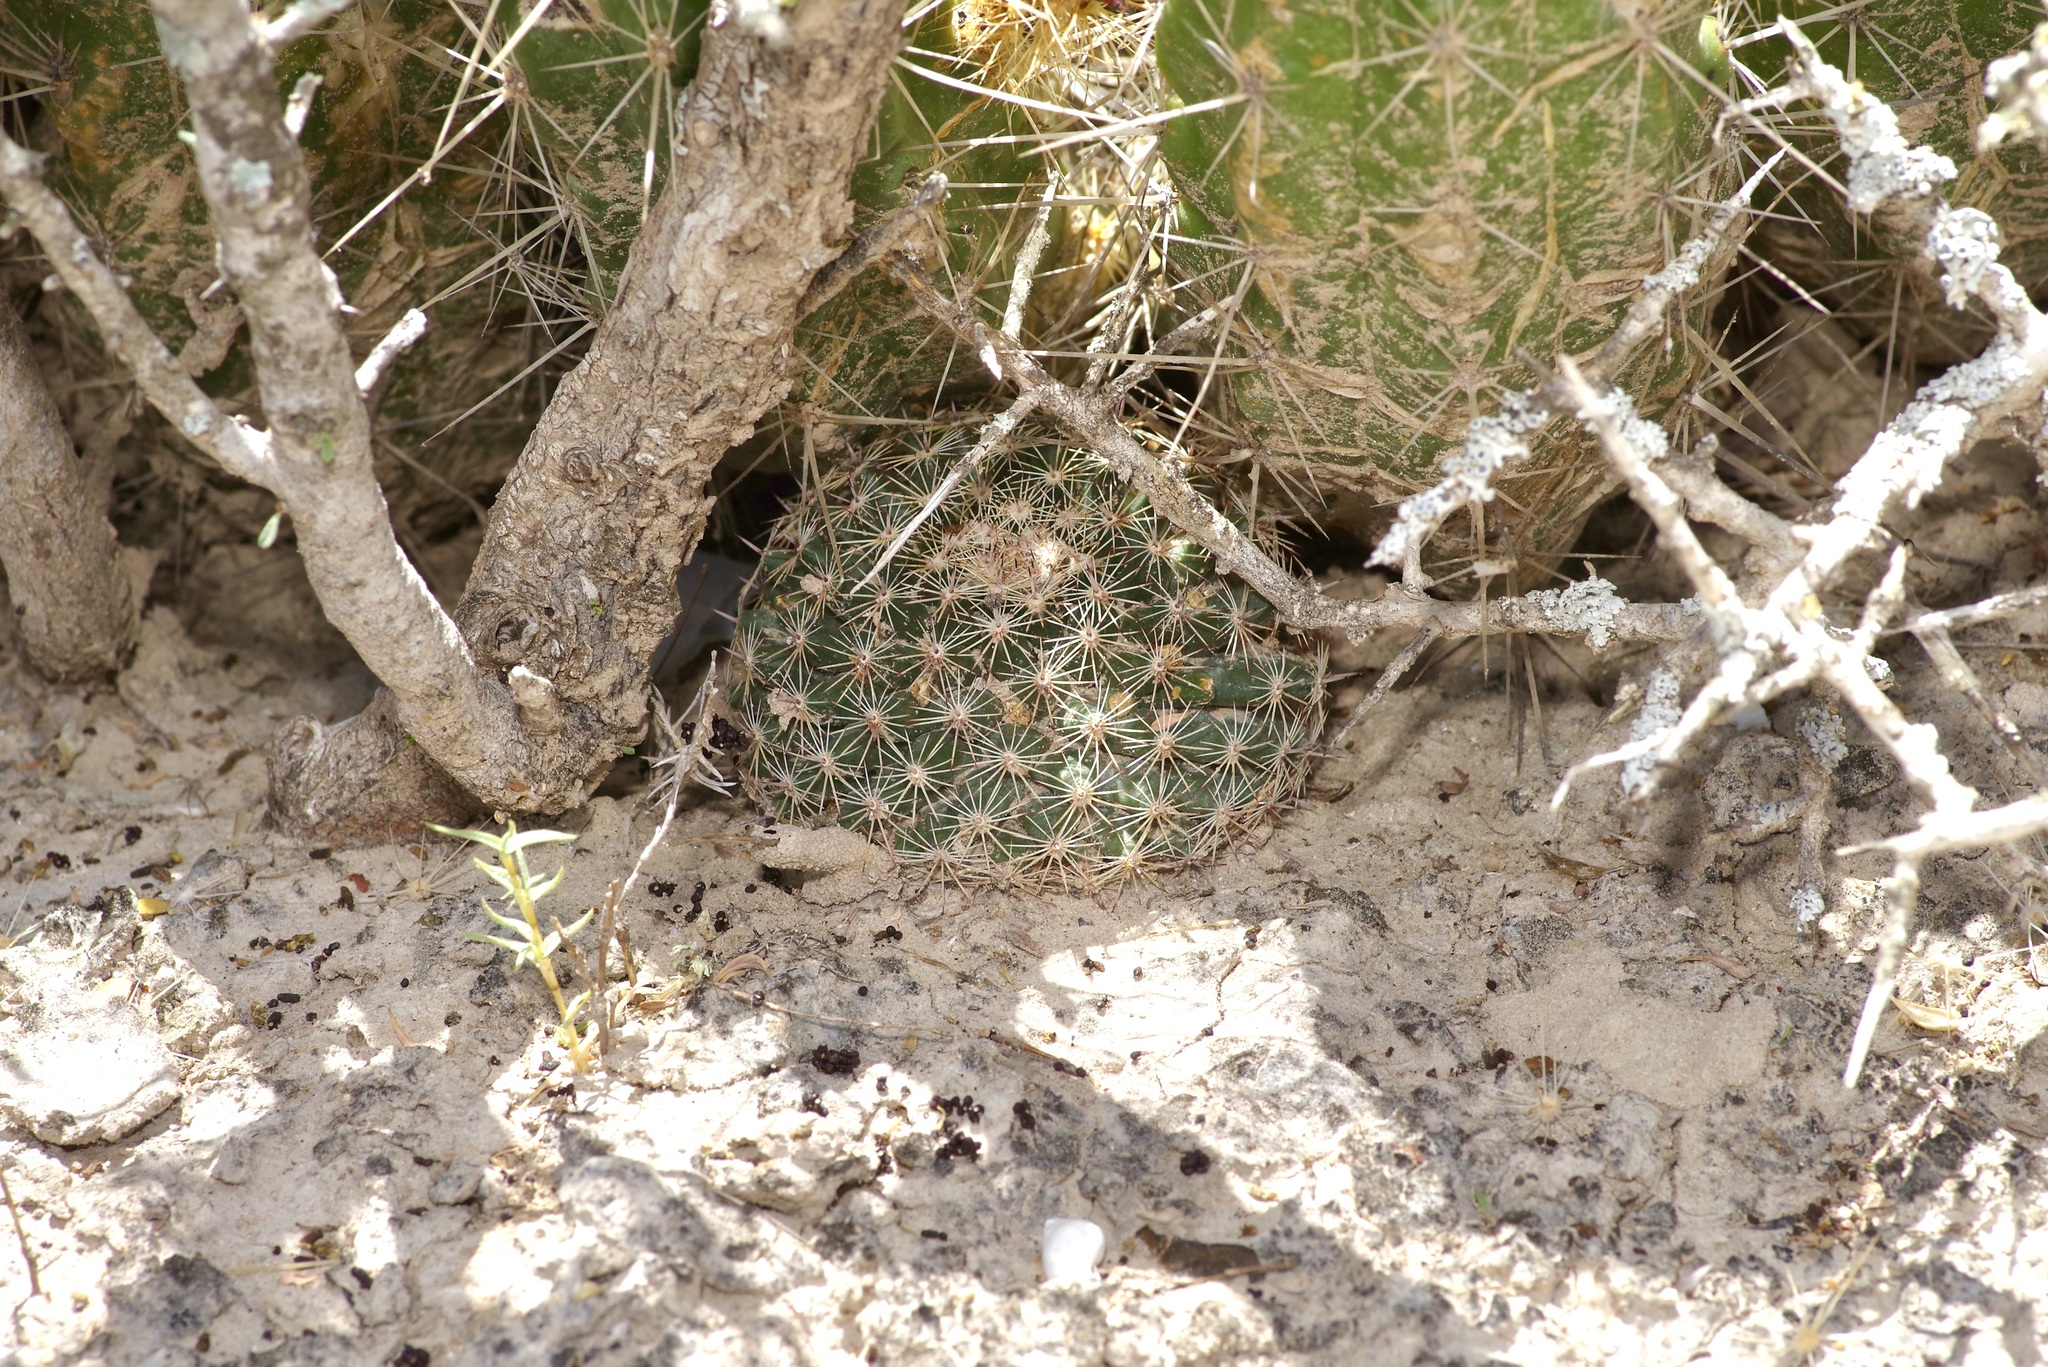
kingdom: Plantae
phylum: Tracheophyta
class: Magnoliopsida
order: Caryophyllales
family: Cactaceae
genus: Mammillaria
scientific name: Mammillaria heyderi
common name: Little nipple cactus
